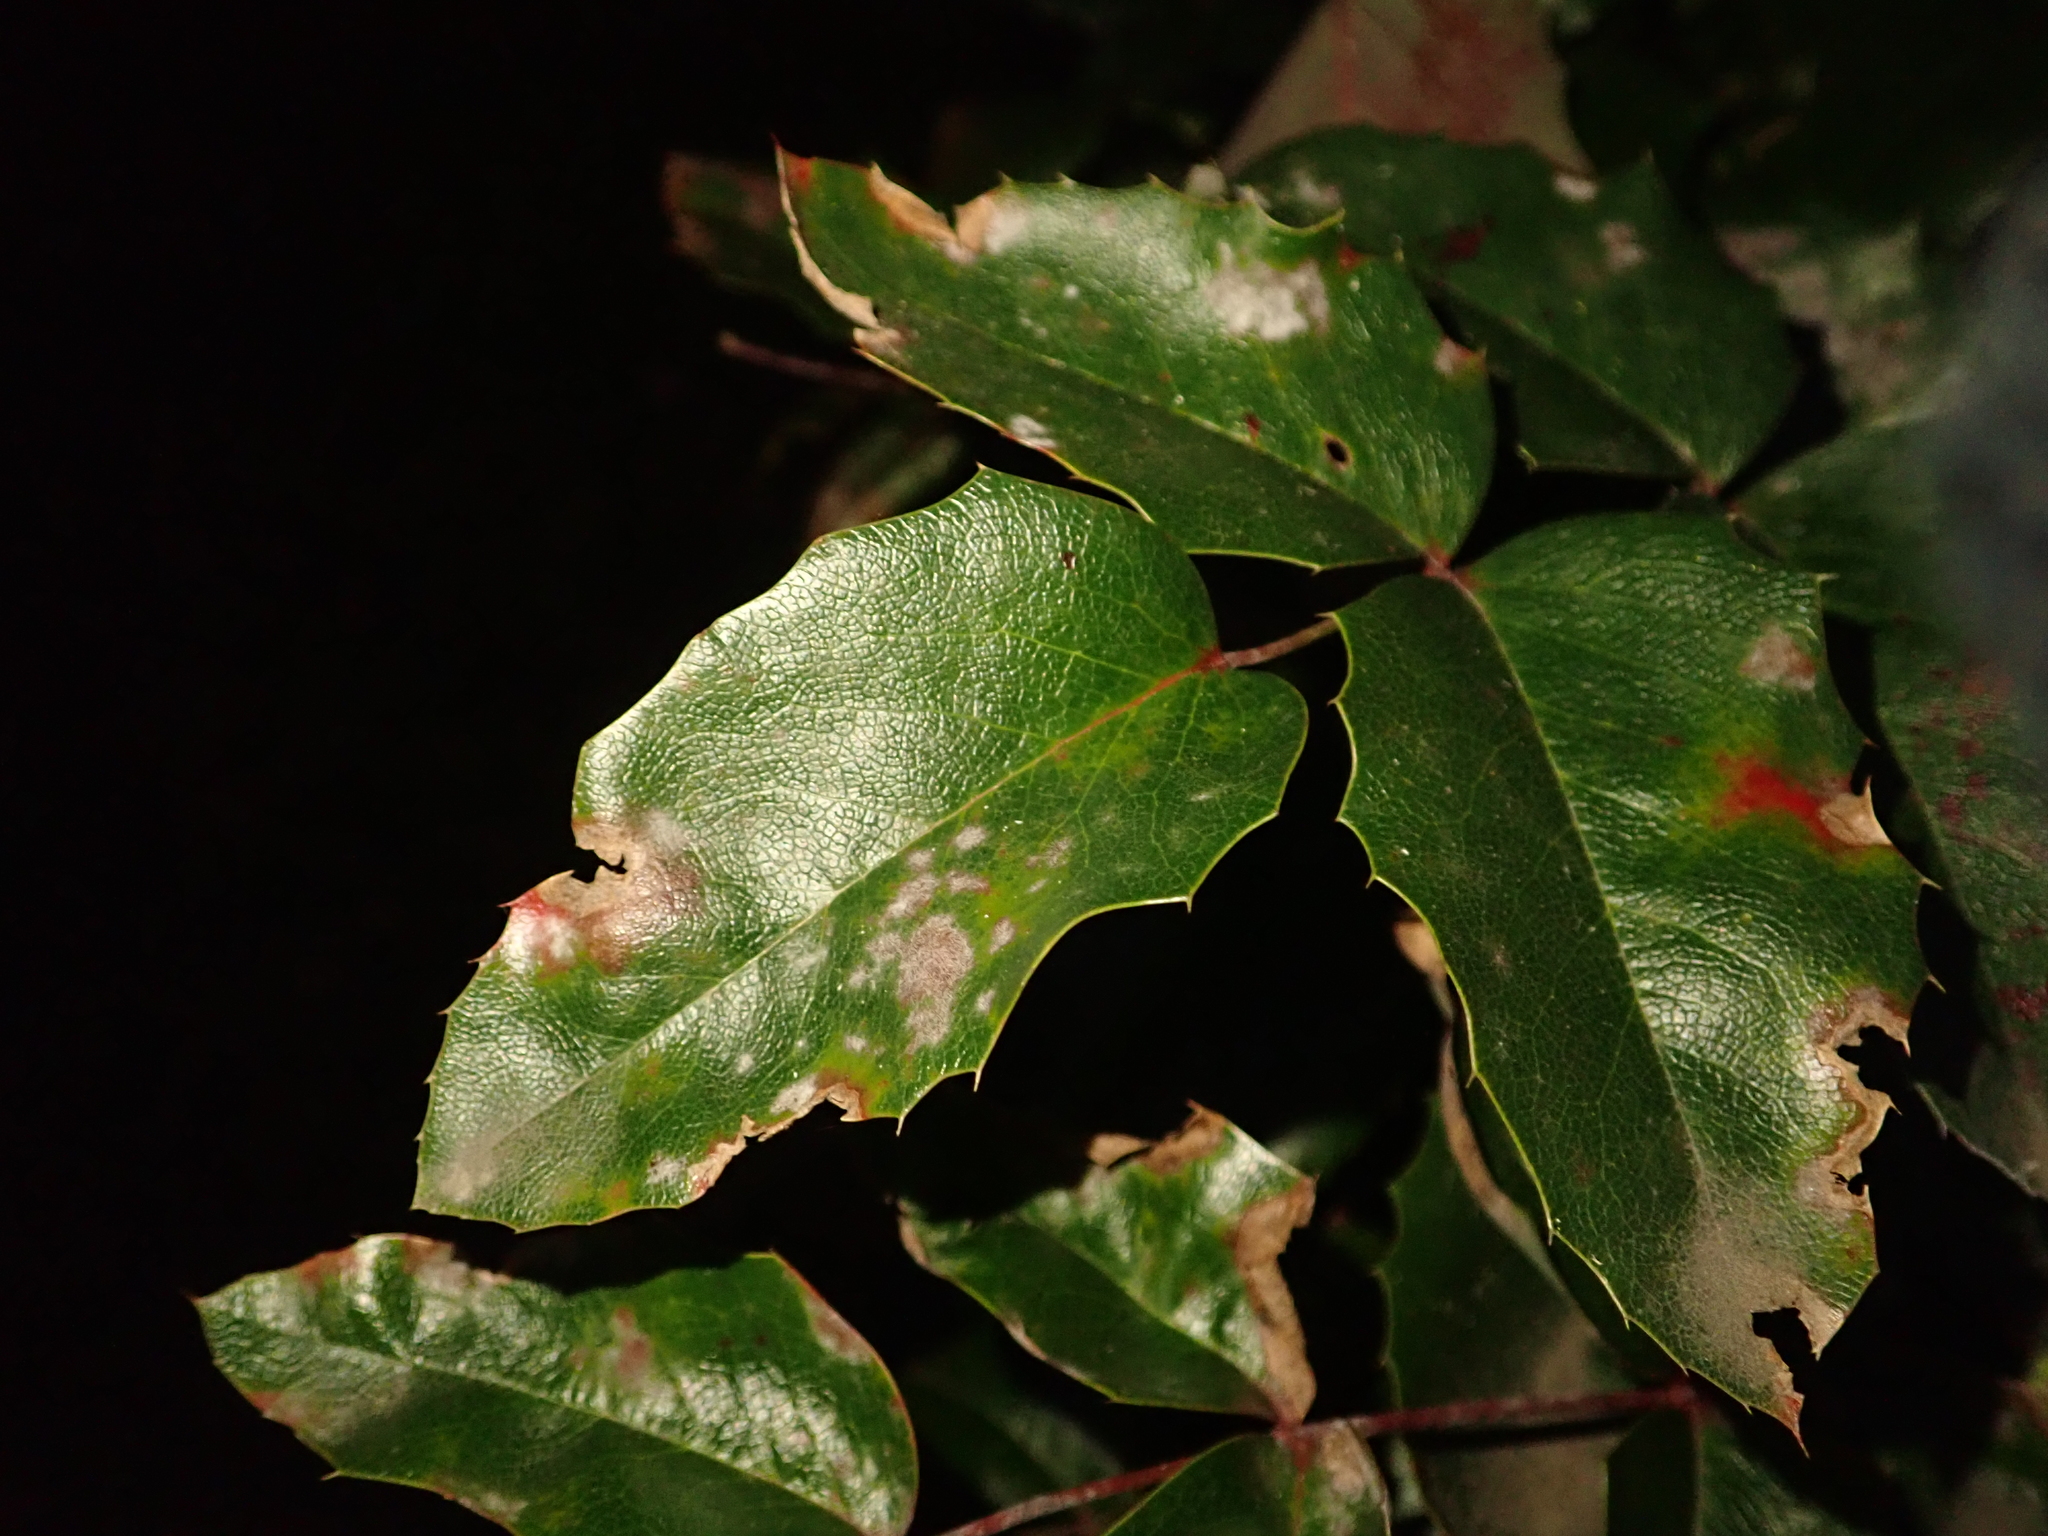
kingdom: Plantae
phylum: Tracheophyta
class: Magnoliopsida
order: Ranunculales
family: Berberidaceae
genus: Mahonia
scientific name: Mahonia aquifolium
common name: Oregon-grape
